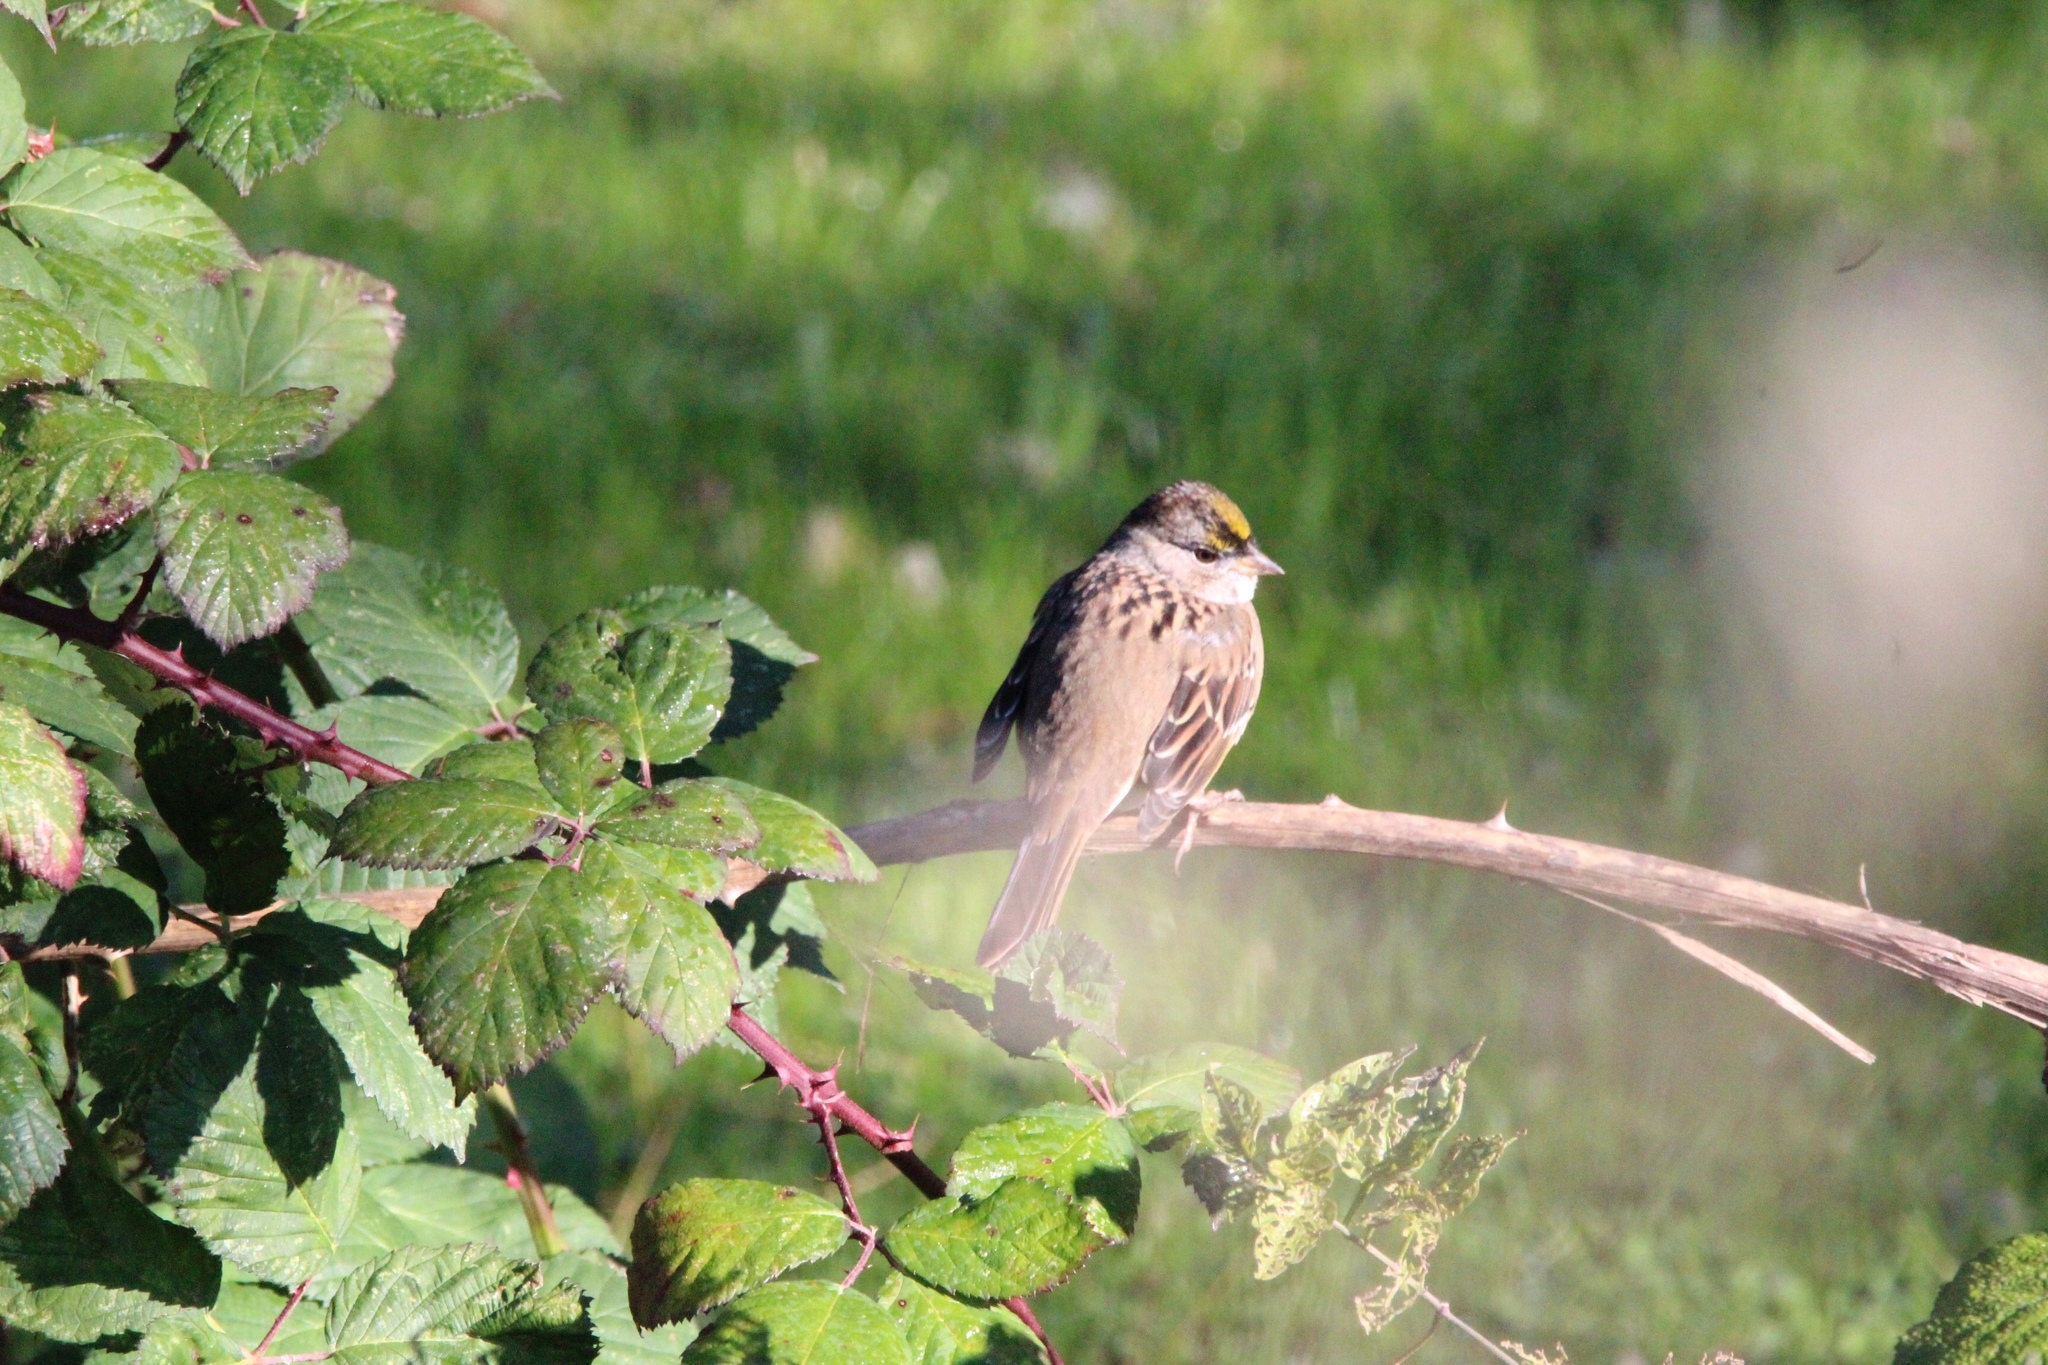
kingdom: Animalia
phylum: Chordata
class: Aves
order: Passeriformes
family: Passerellidae
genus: Zonotrichia
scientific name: Zonotrichia atricapilla
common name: Golden-crowned sparrow
